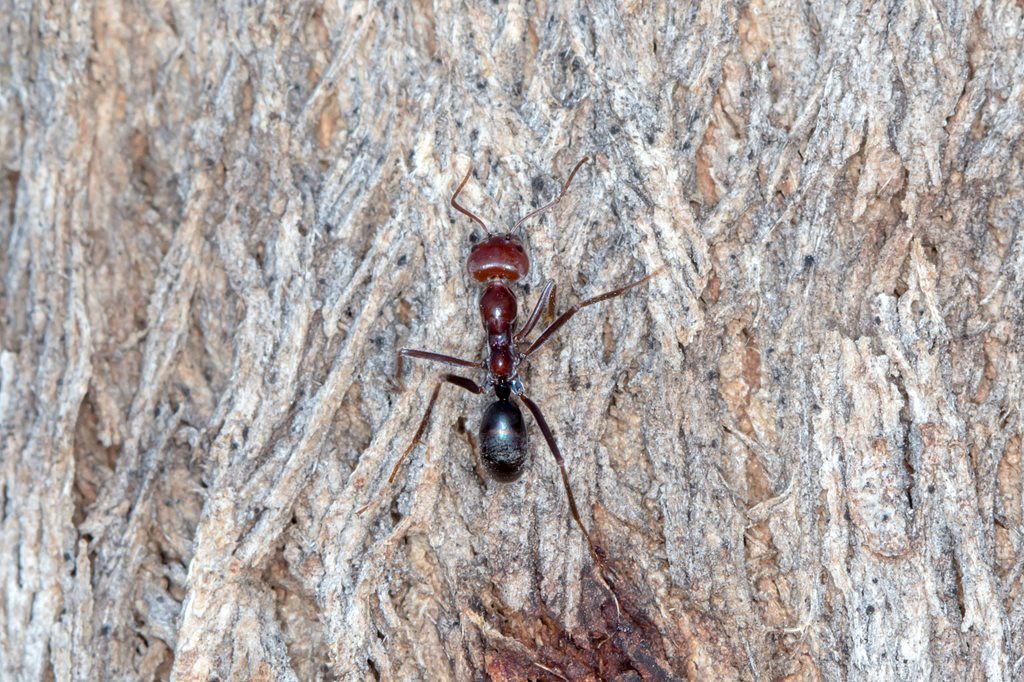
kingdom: Animalia
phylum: Arthropoda
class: Insecta
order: Hymenoptera
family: Formicidae
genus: Iridomyrmex
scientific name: Iridomyrmex purpureus
